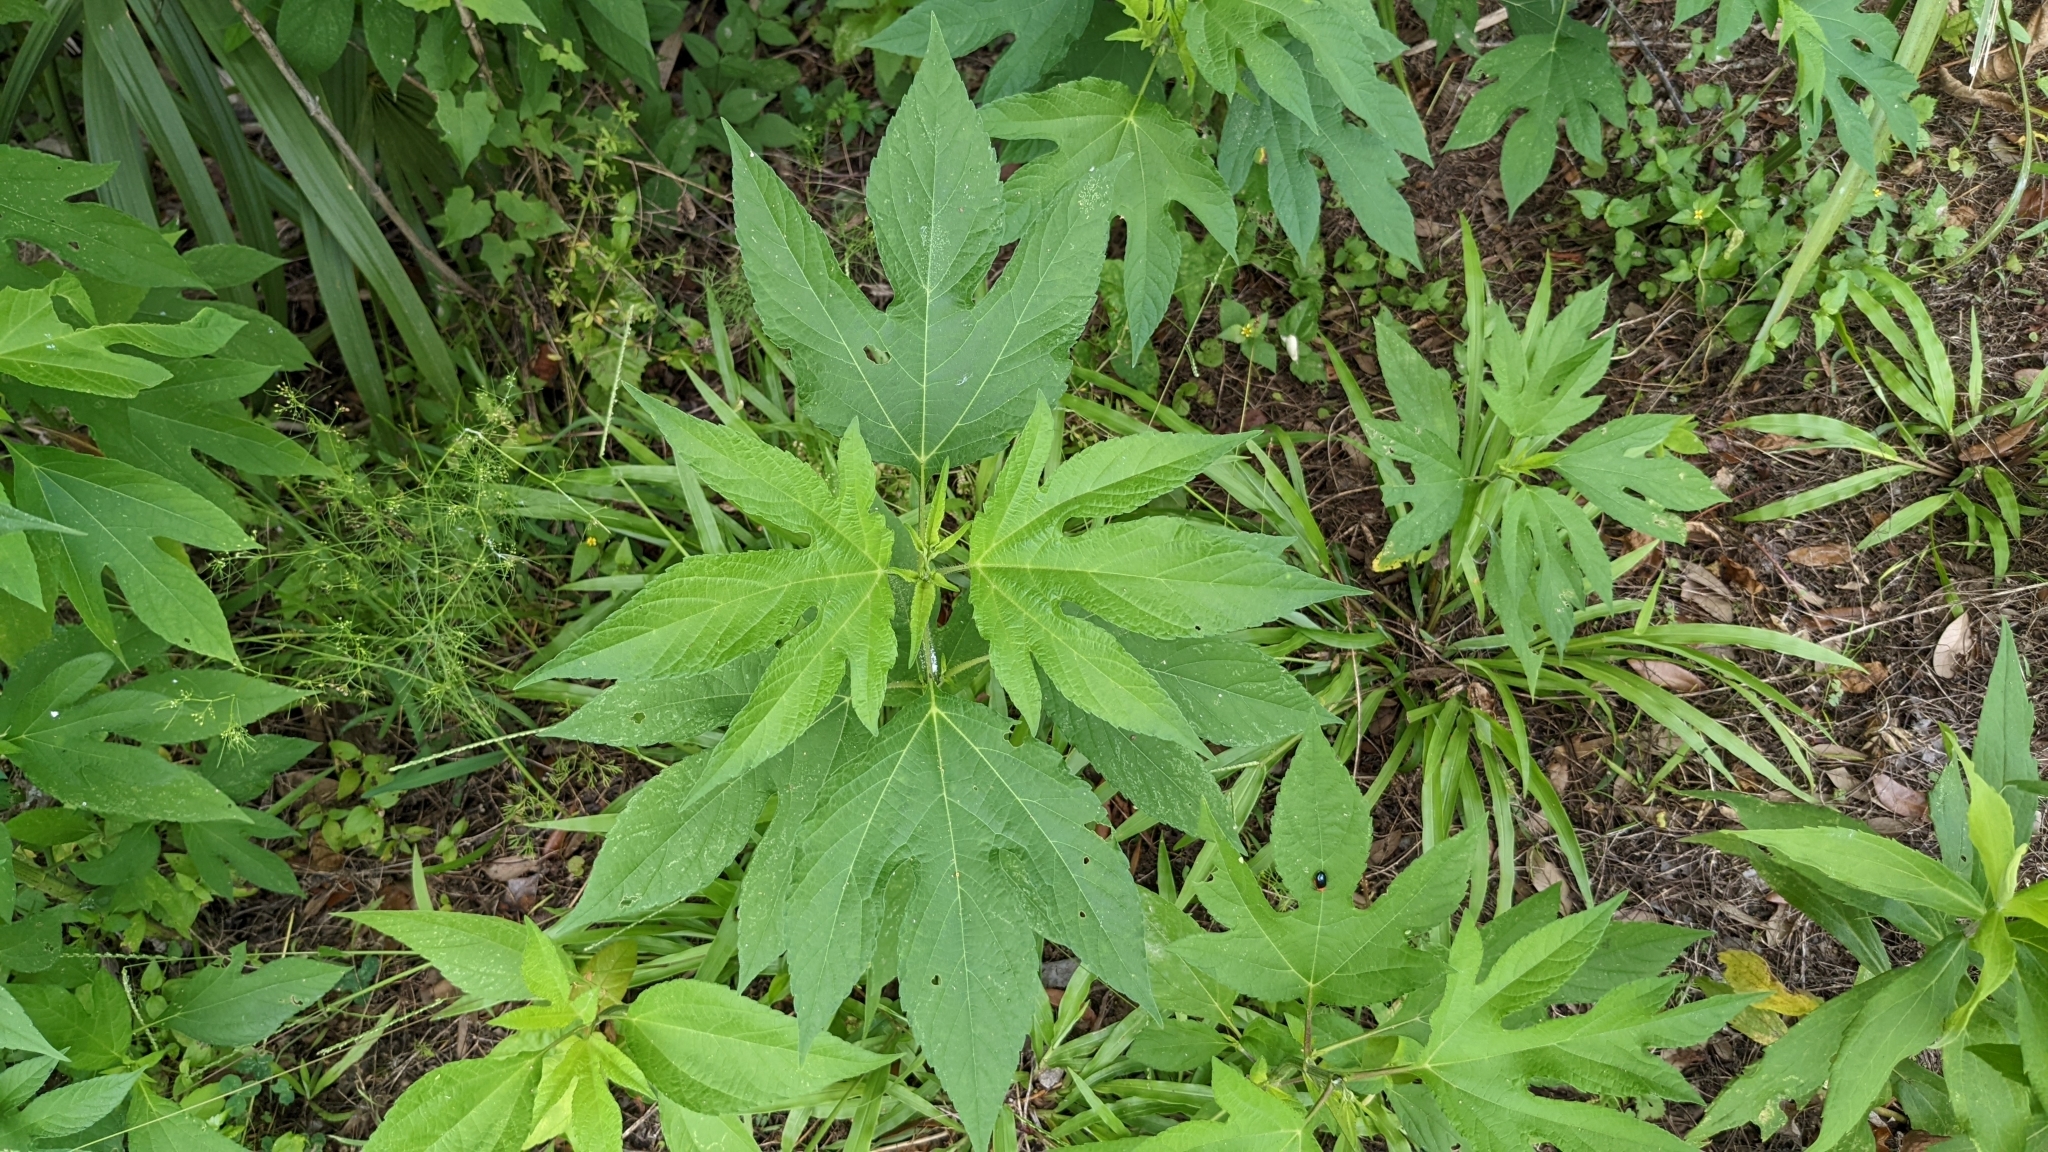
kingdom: Plantae
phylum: Tracheophyta
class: Magnoliopsida
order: Asterales
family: Asteraceae
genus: Ambrosia
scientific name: Ambrosia trifida
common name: Giant ragweed
